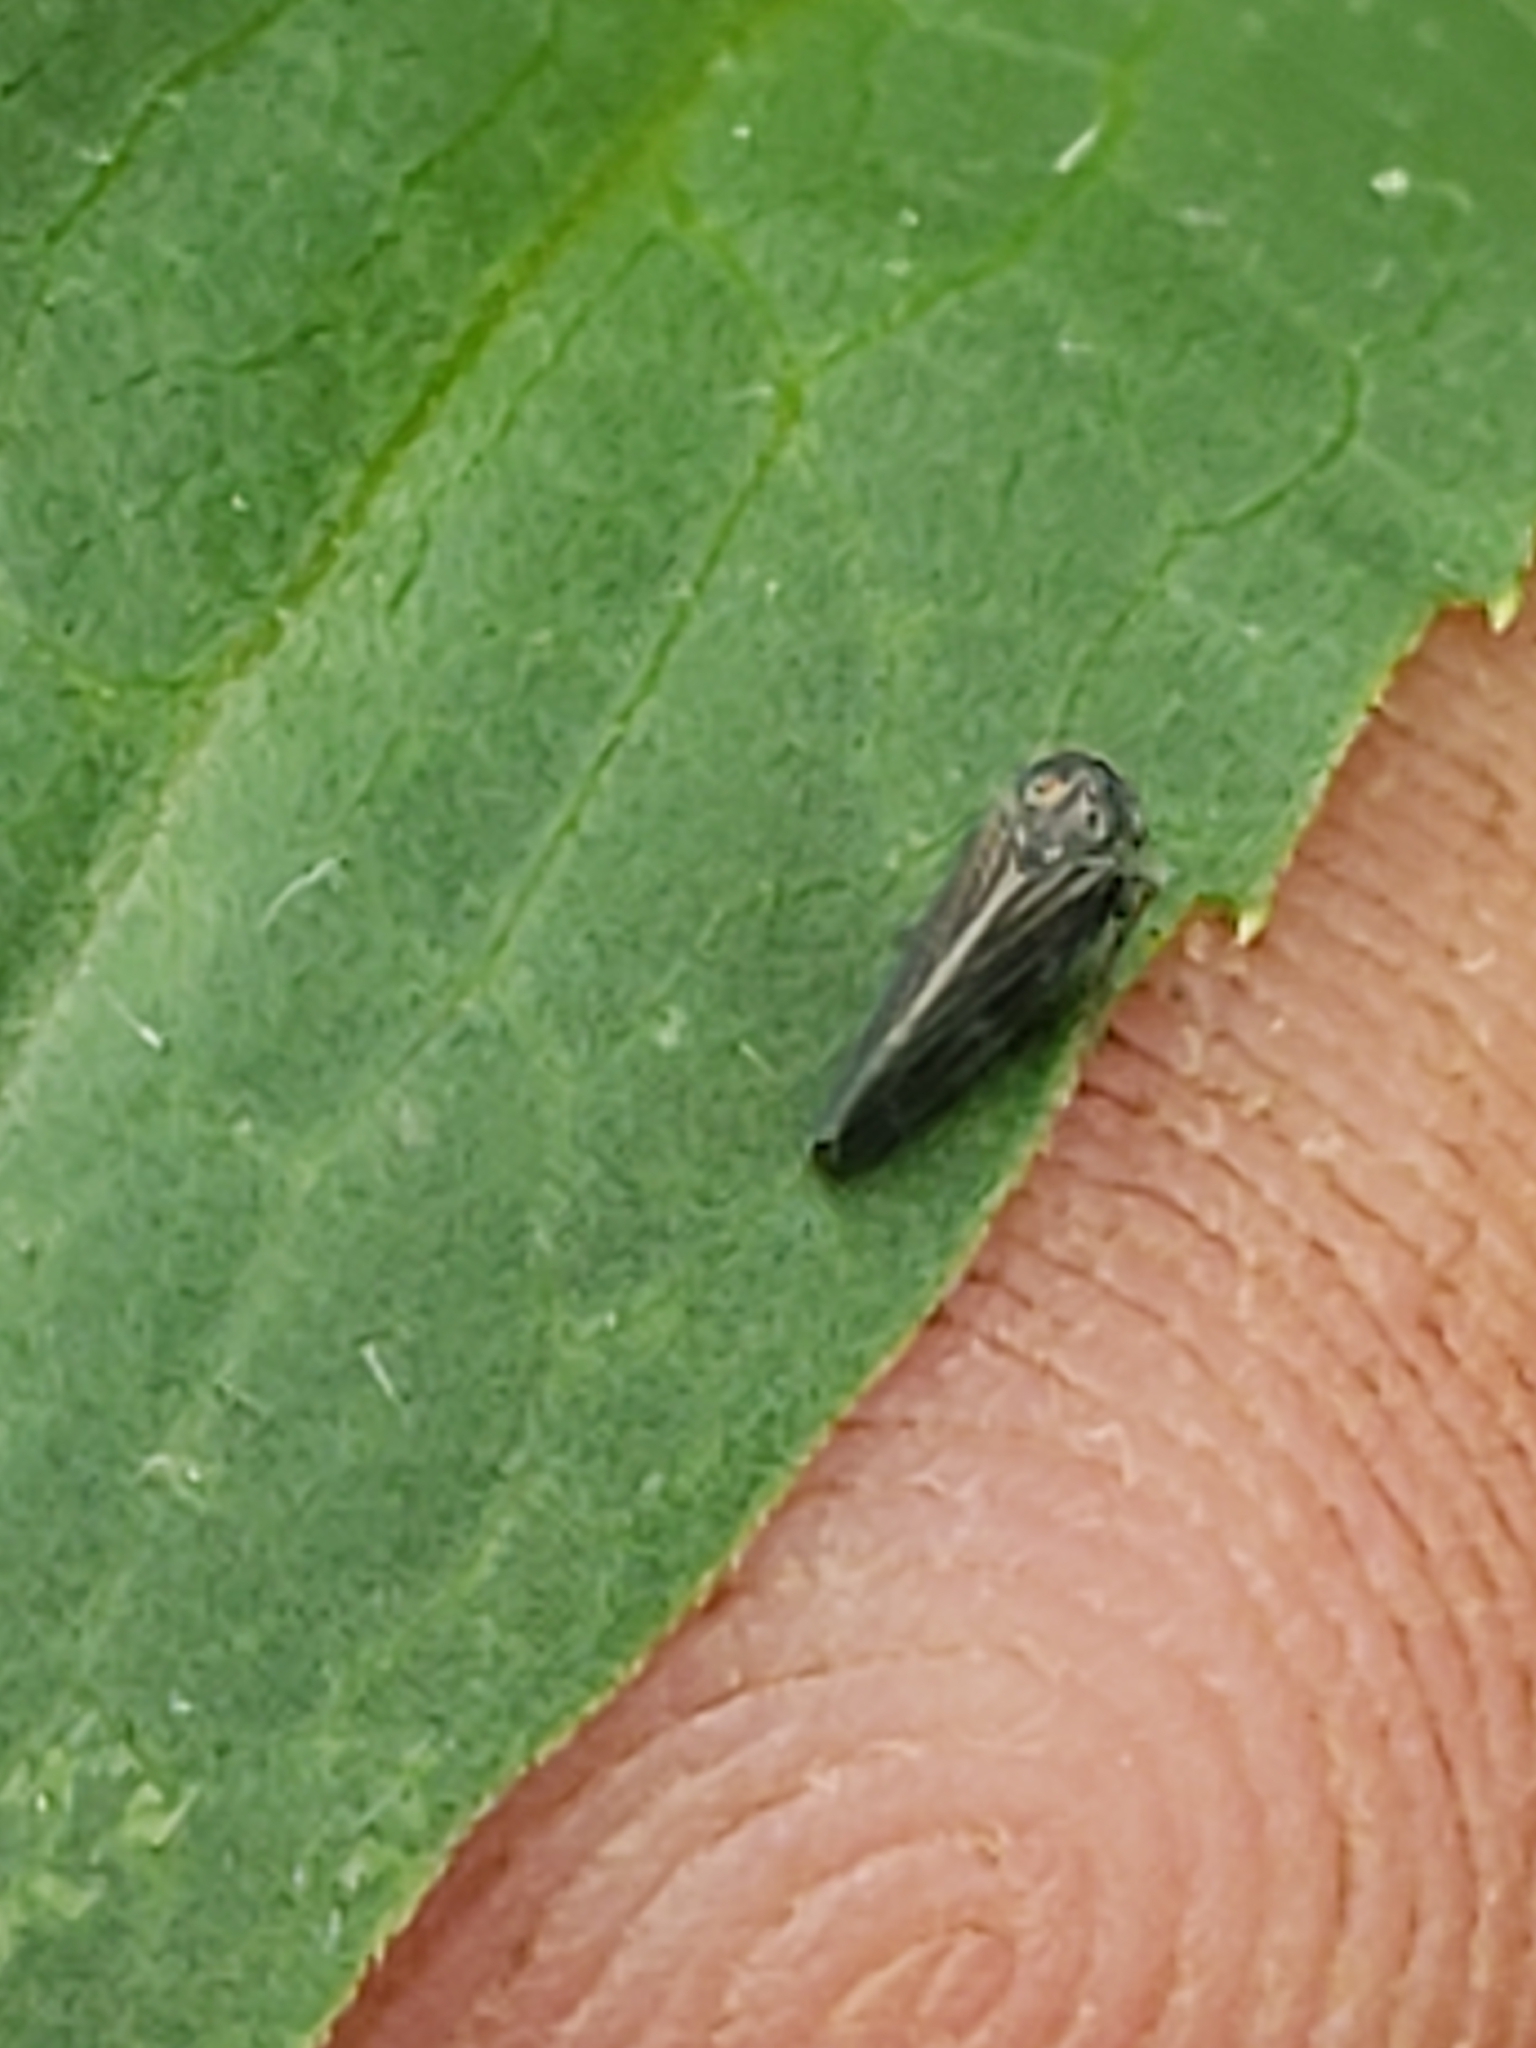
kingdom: Animalia
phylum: Arthropoda
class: Insecta
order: Hemiptera
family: Cicadellidae
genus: Agallia
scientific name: Agallia constricta
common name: The constricted leafhopper
